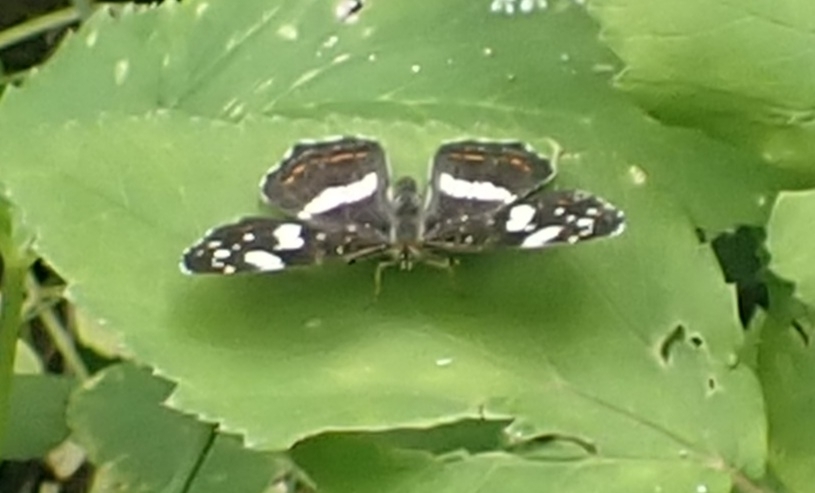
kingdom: Animalia
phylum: Arthropoda
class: Insecta
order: Lepidoptera
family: Nymphalidae
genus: Araschnia
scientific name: Araschnia levana
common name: Map butterfly
